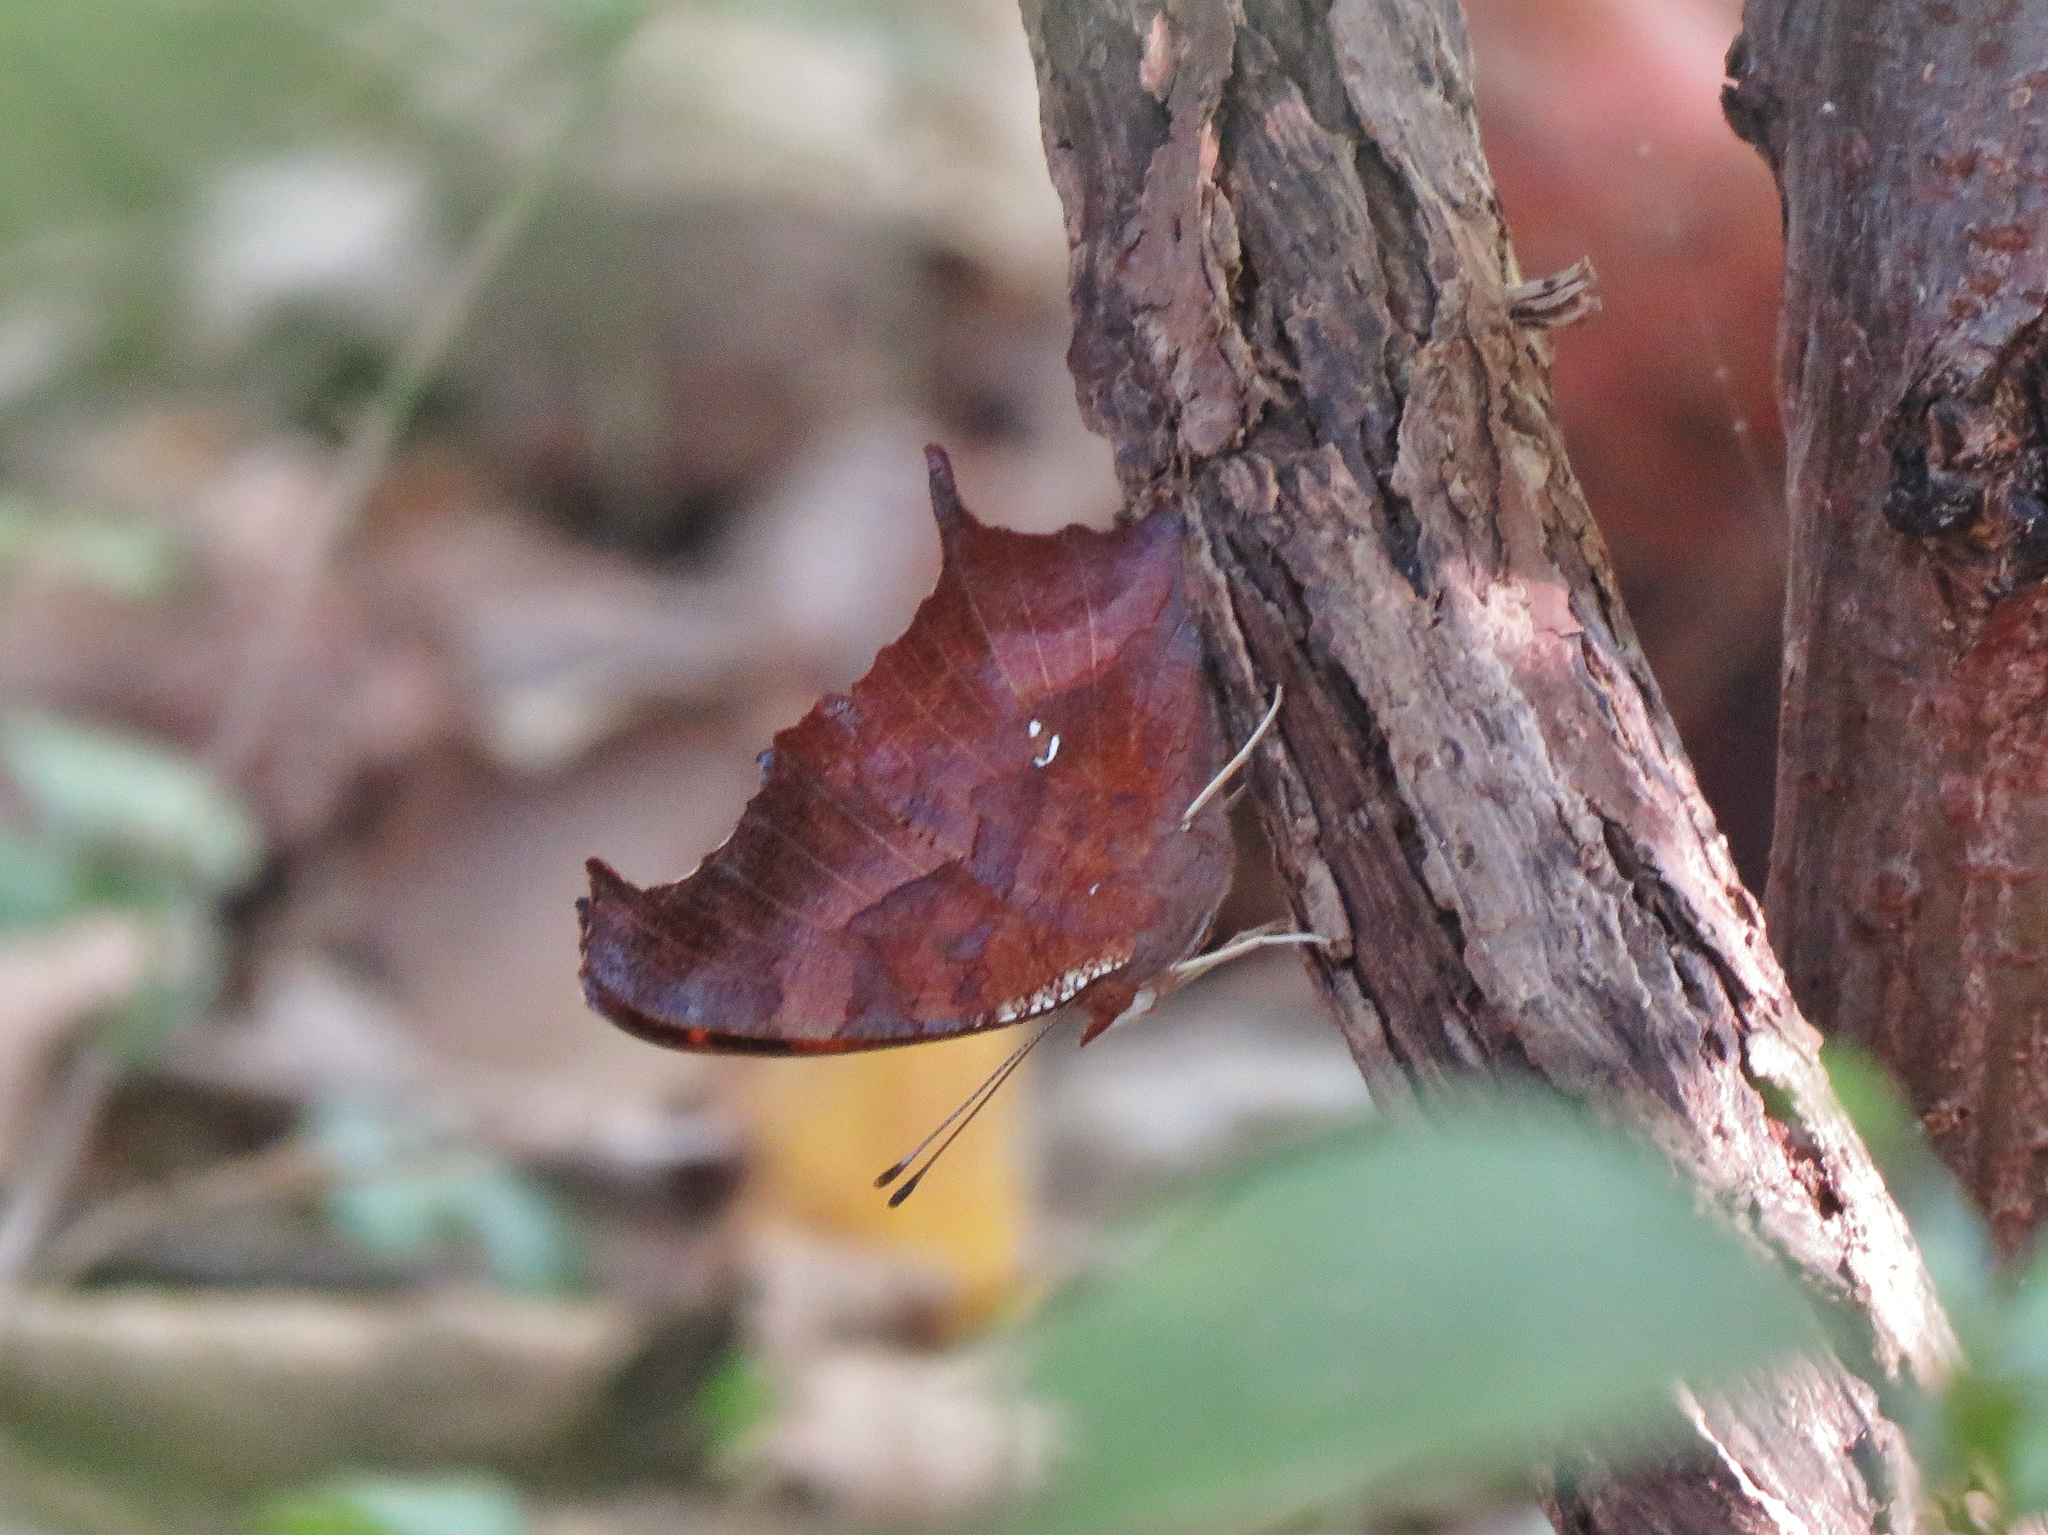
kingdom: Animalia
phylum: Arthropoda
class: Insecta
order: Lepidoptera
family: Nymphalidae
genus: Polygonia
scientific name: Polygonia interrogationis
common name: Question mark
